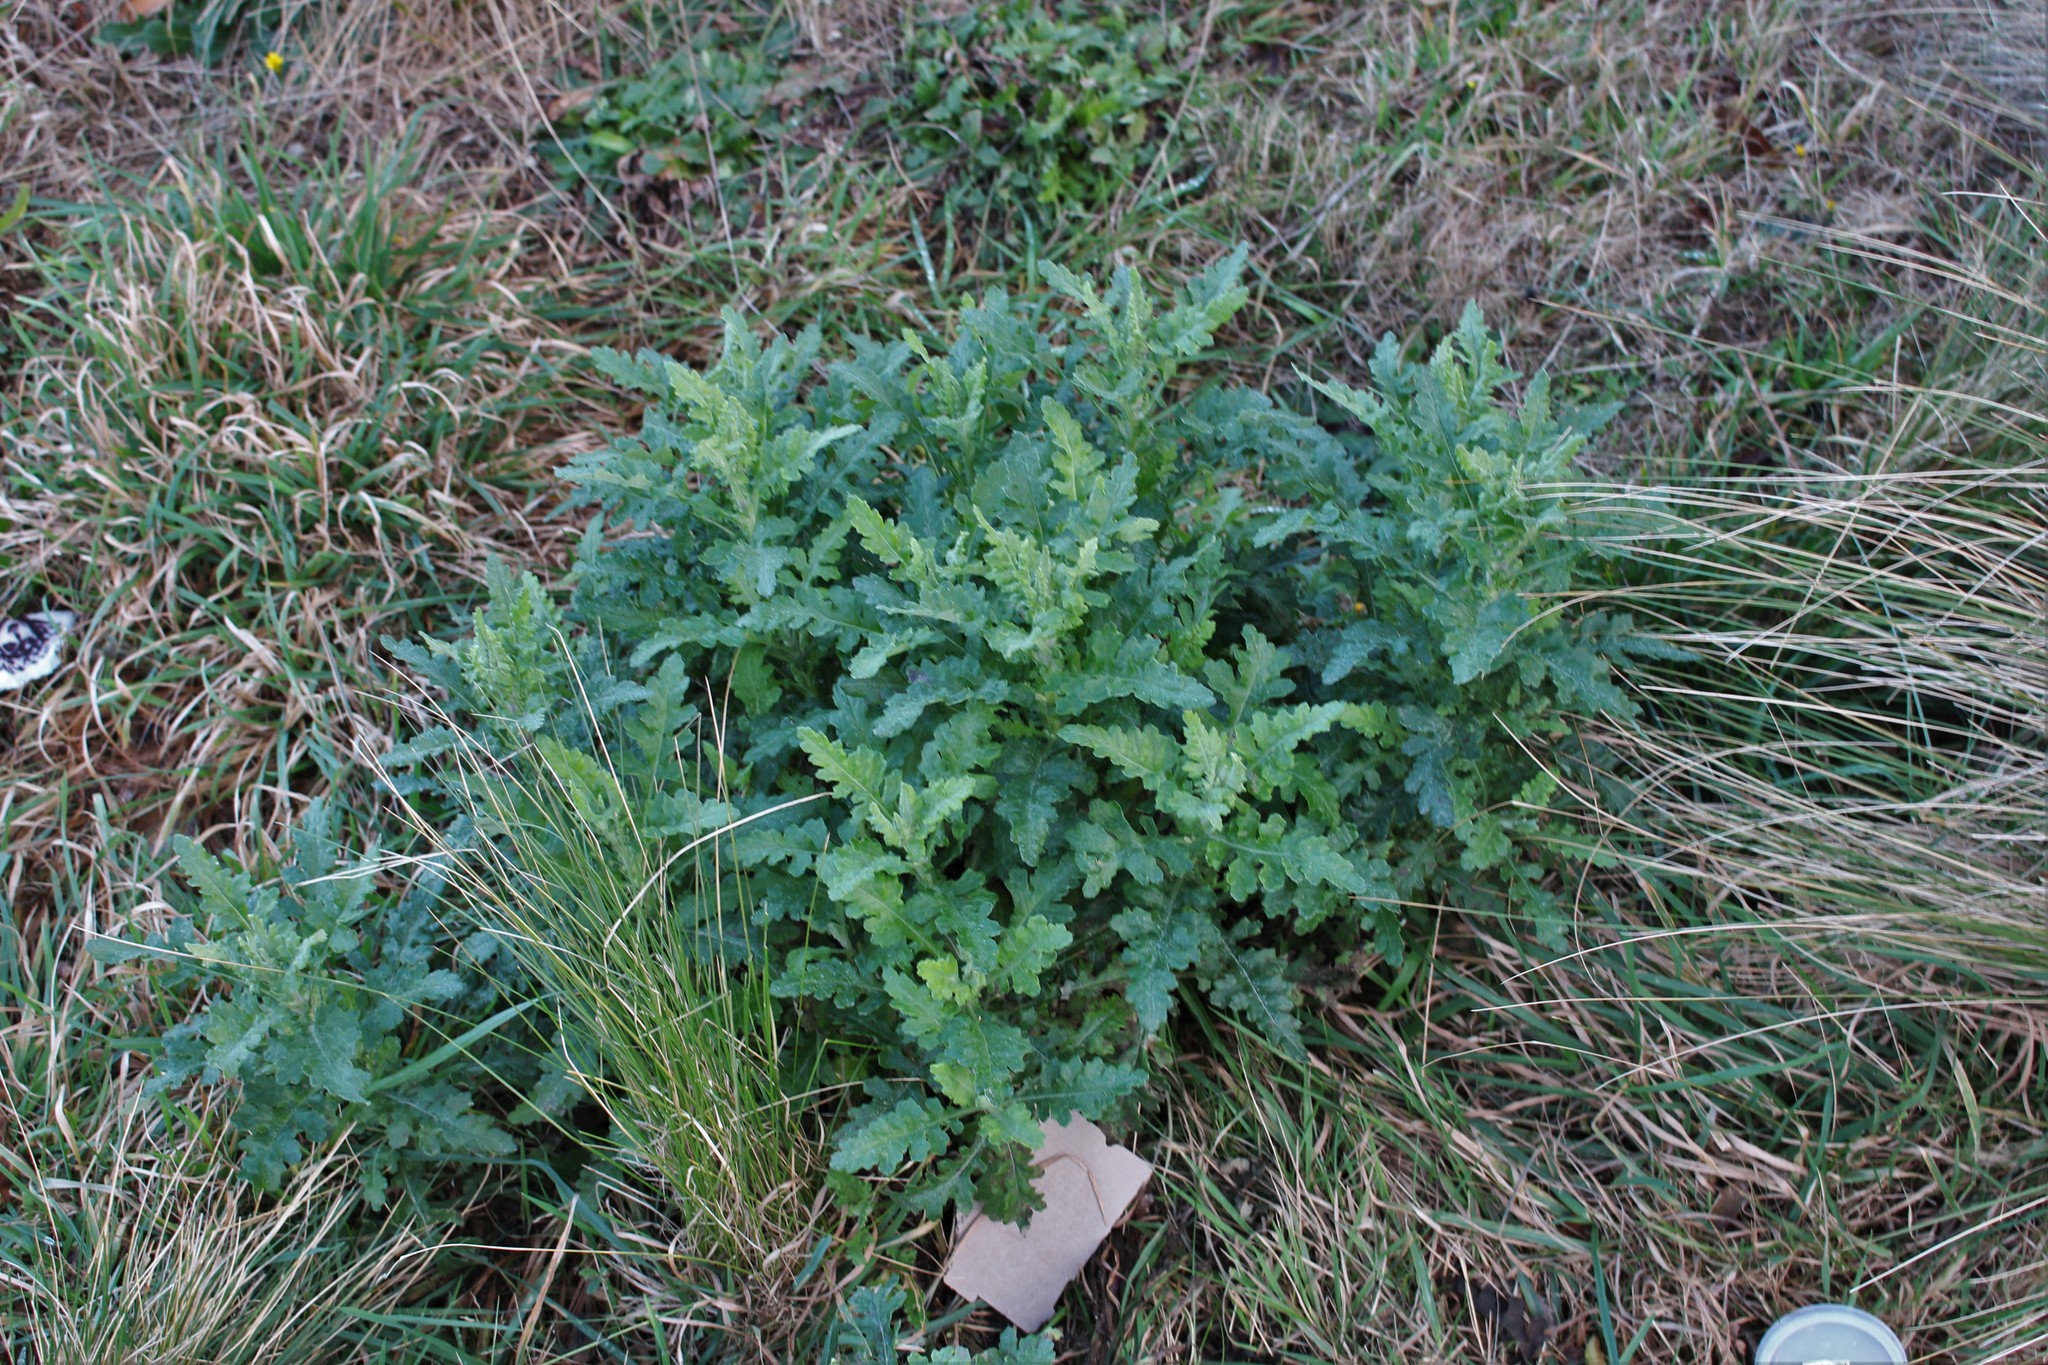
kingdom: Plantae
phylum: Tracheophyta
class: Magnoliopsida
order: Asterales
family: Asteraceae
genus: Senecio
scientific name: Senecio glomeratus
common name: Cutleaf burnweed
